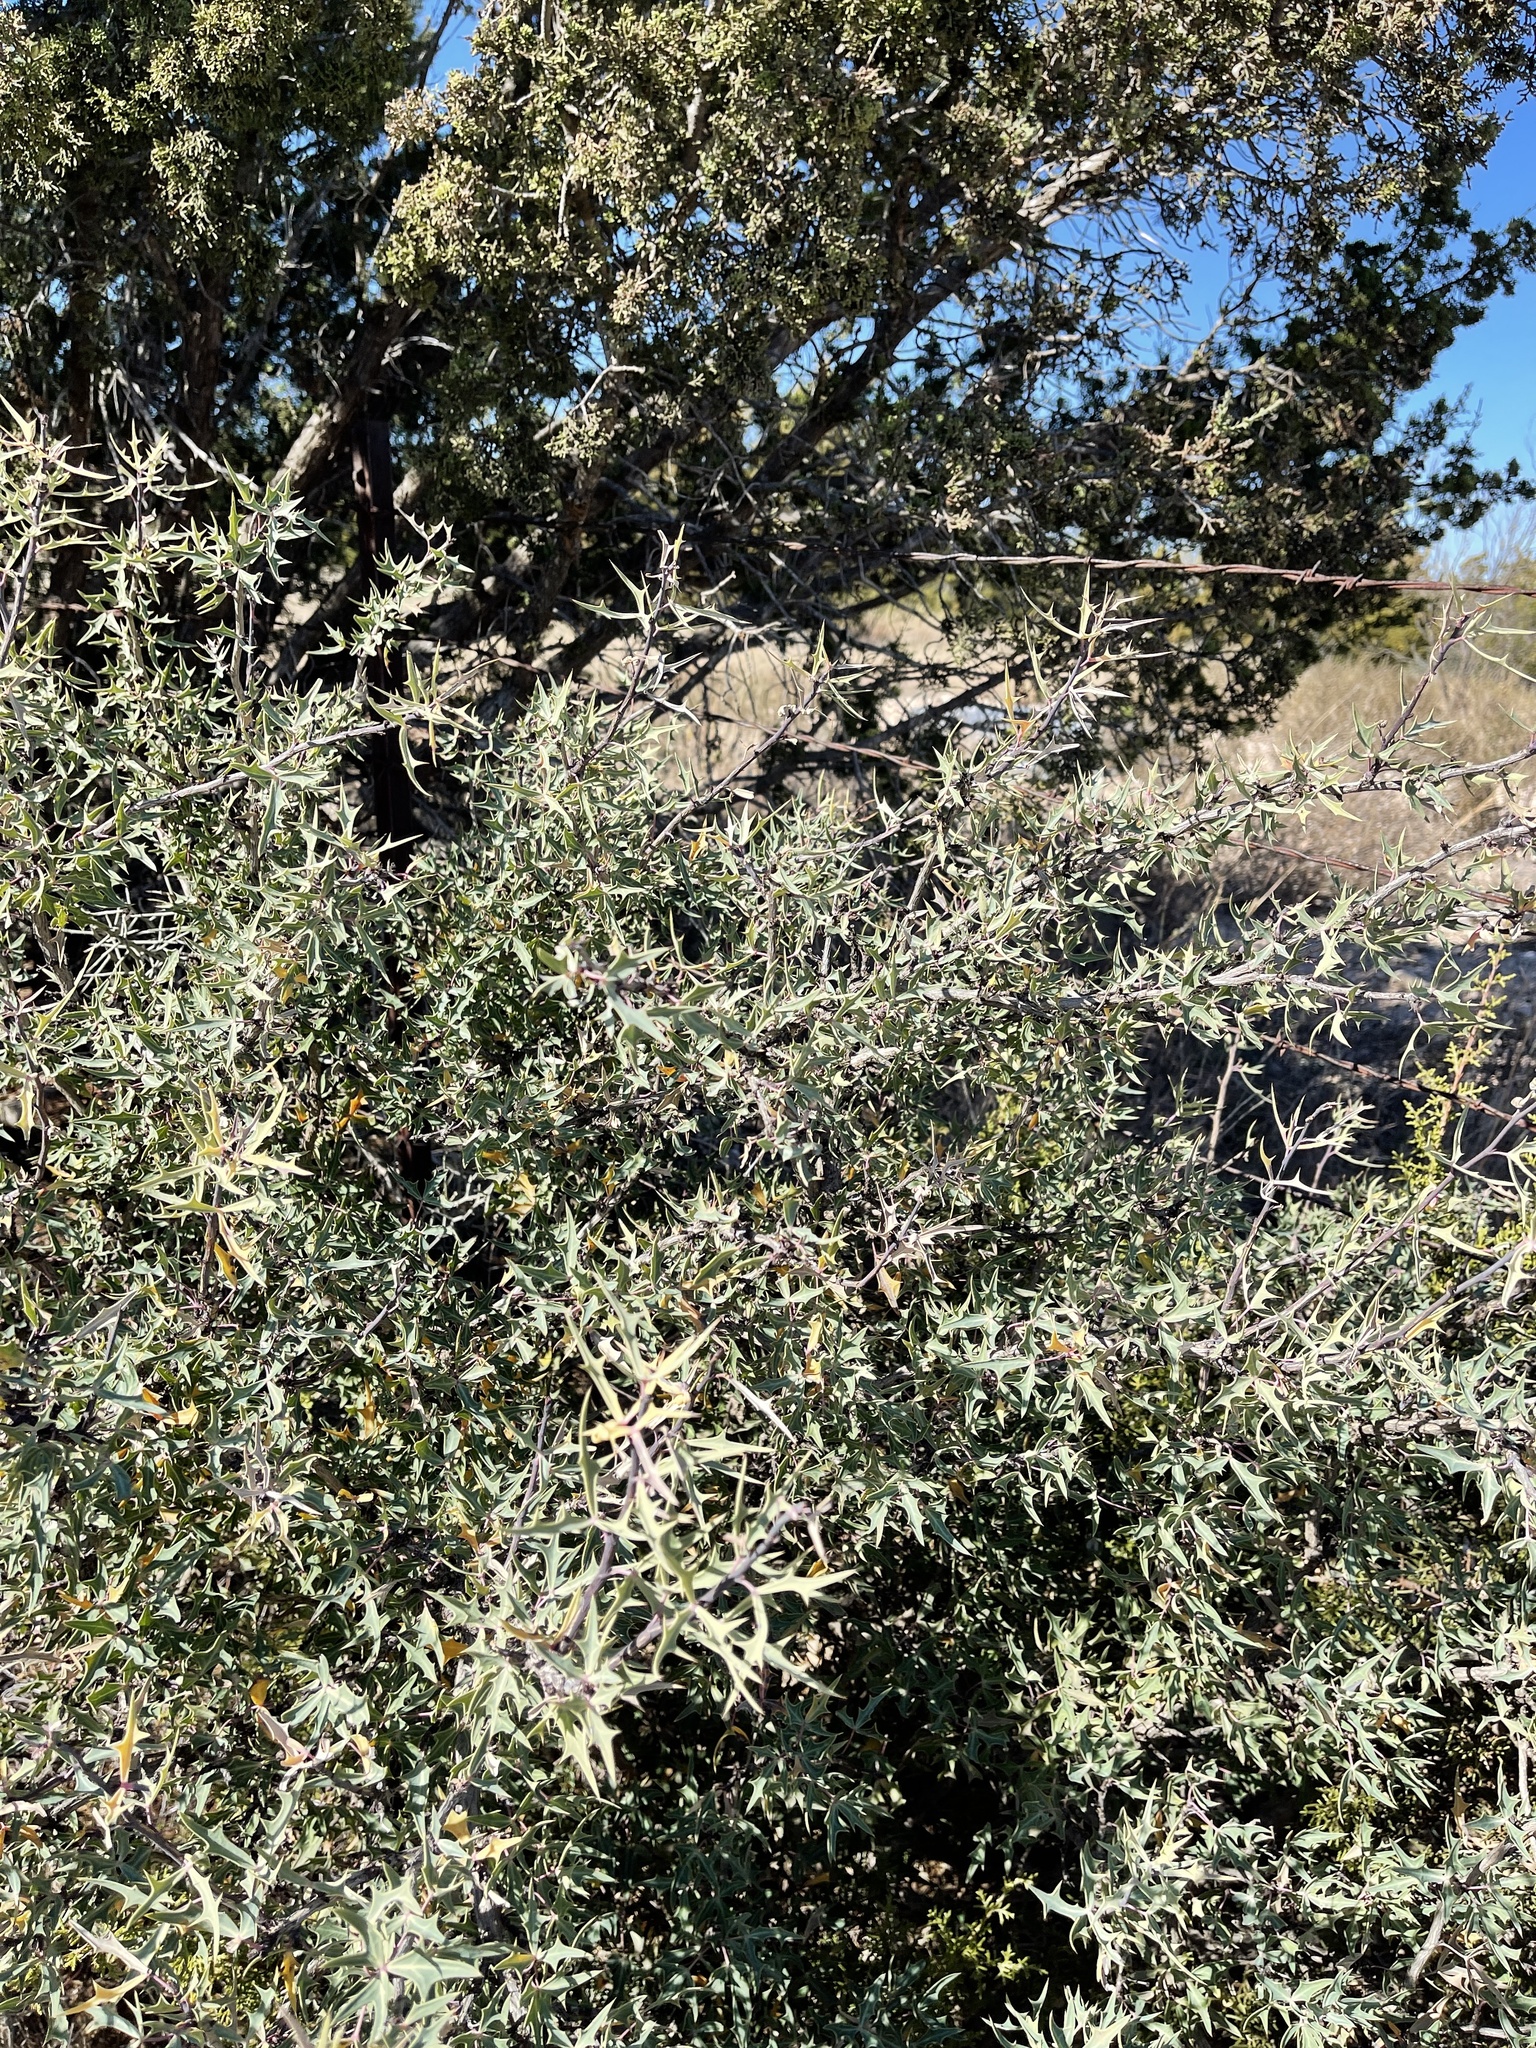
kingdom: Plantae
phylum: Tracheophyta
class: Magnoliopsida
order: Ranunculales
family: Berberidaceae
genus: Alloberberis
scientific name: Alloberberis trifoliolata
